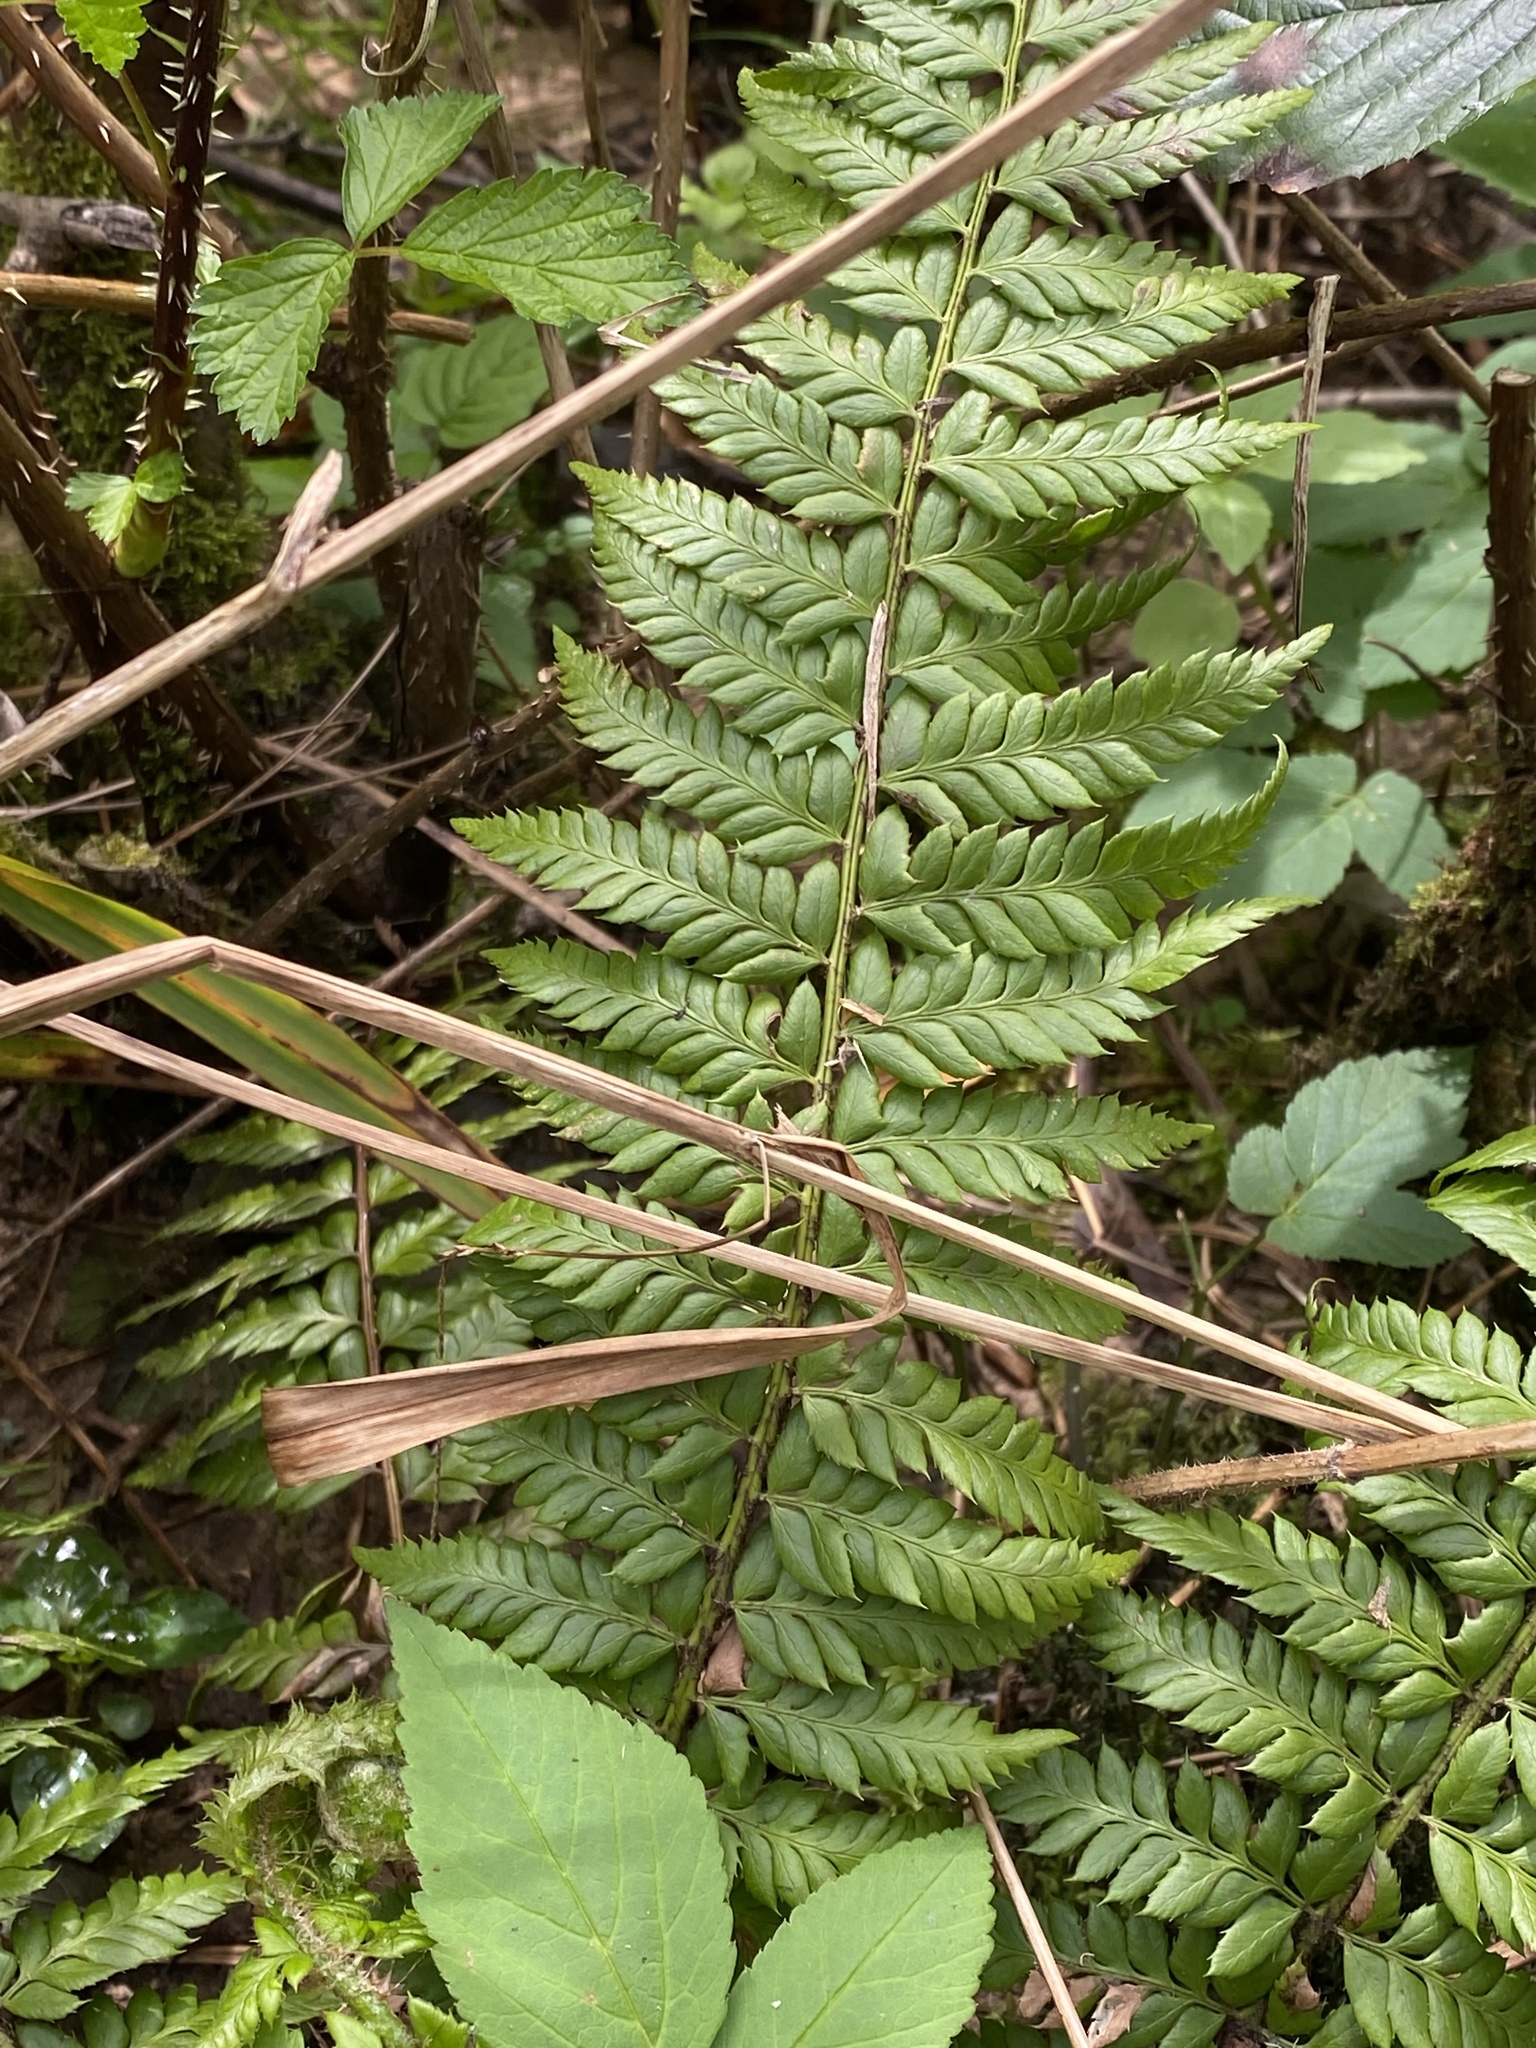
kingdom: Plantae
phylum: Tracheophyta
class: Polypodiopsida
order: Polypodiales
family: Dryopteridaceae
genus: Polystichum
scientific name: Polystichum aculeatum
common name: Hard shield-fern
